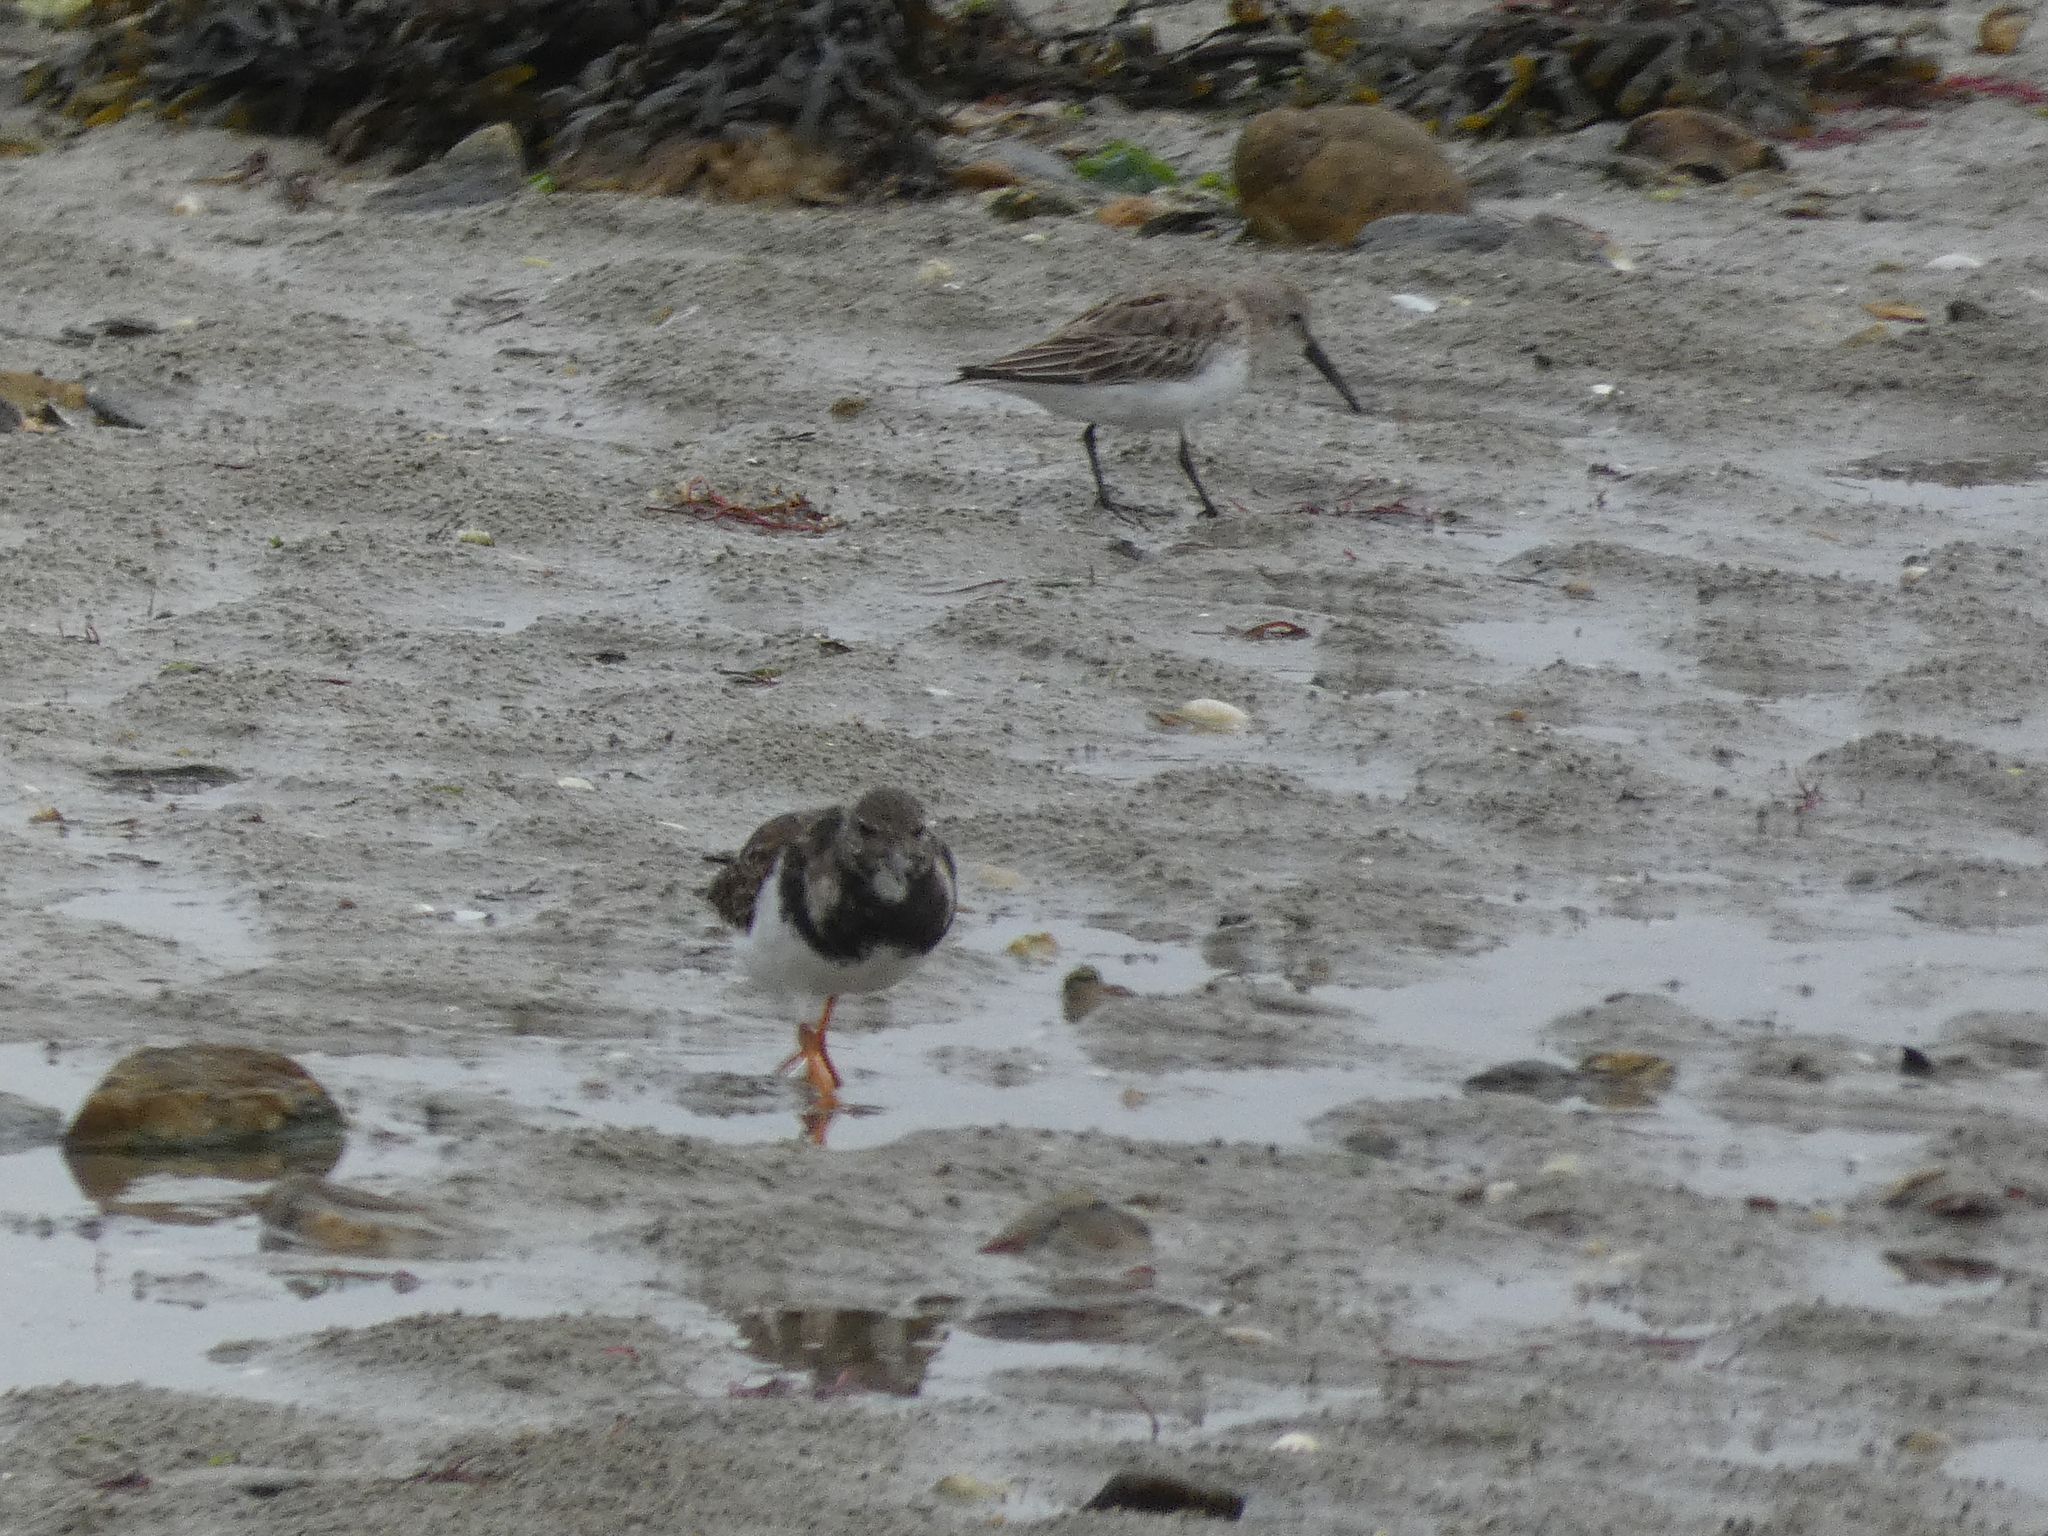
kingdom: Animalia
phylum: Chordata
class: Aves
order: Charadriiformes
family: Scolopacidae
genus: Arenaria
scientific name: Arenaria interpres
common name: Ruddy turnstone
